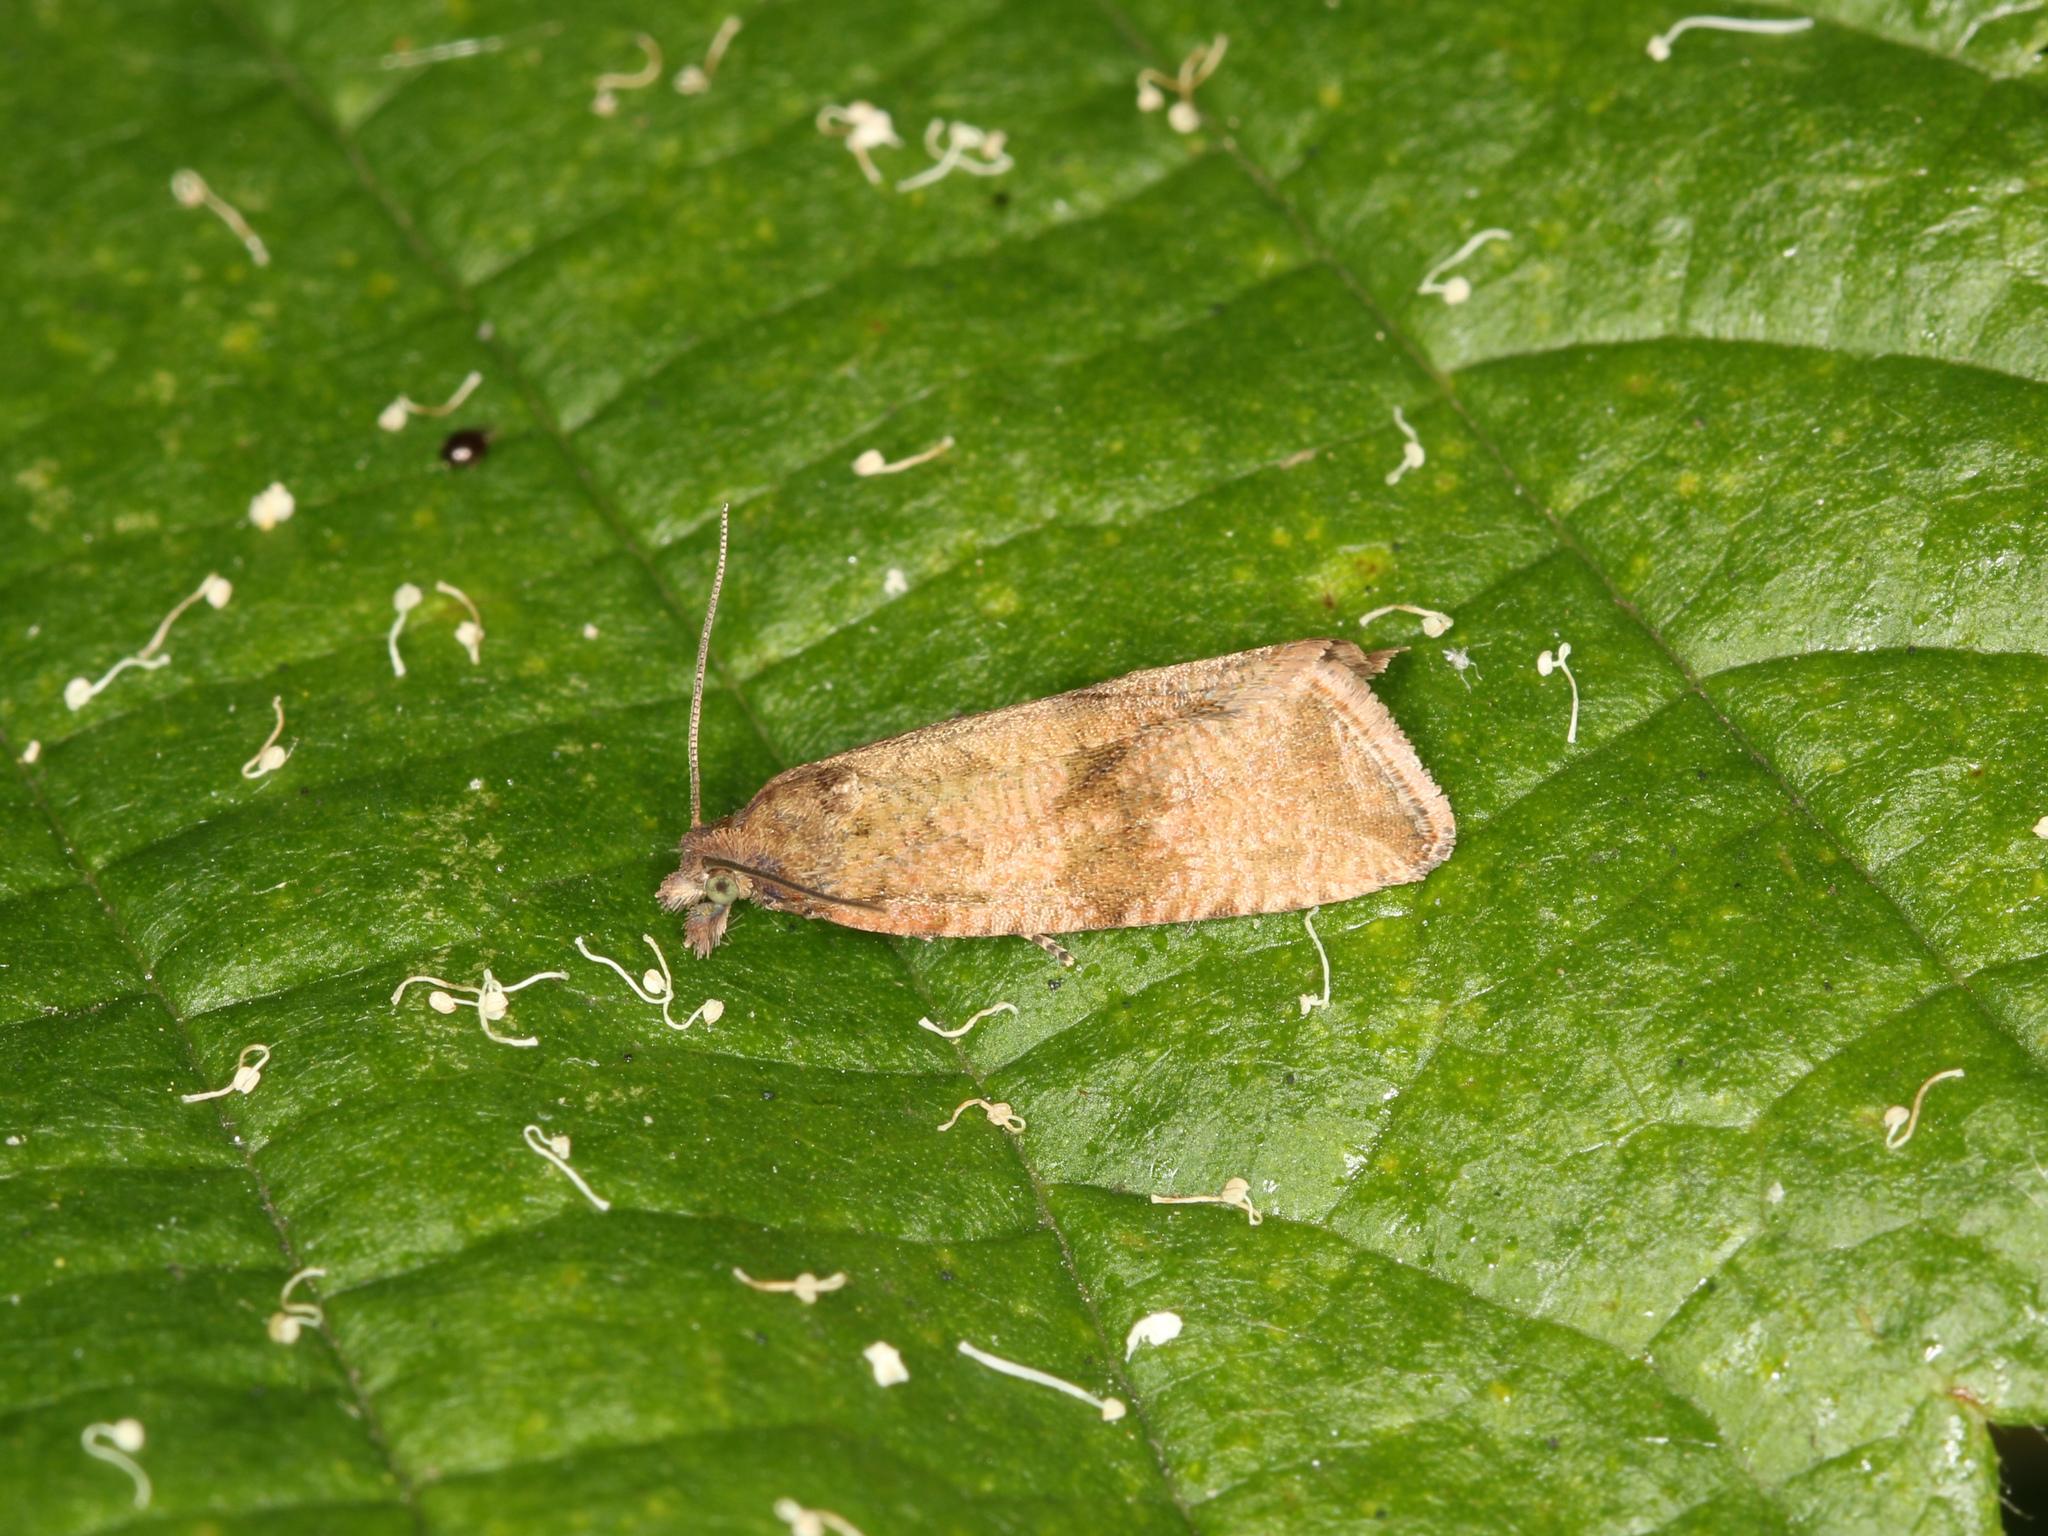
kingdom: Animalia
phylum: Arthropoda
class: Insecta
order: Lepidoptera
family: Tortricidae
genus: Celypha
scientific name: Celypha striana
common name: Barred marble
